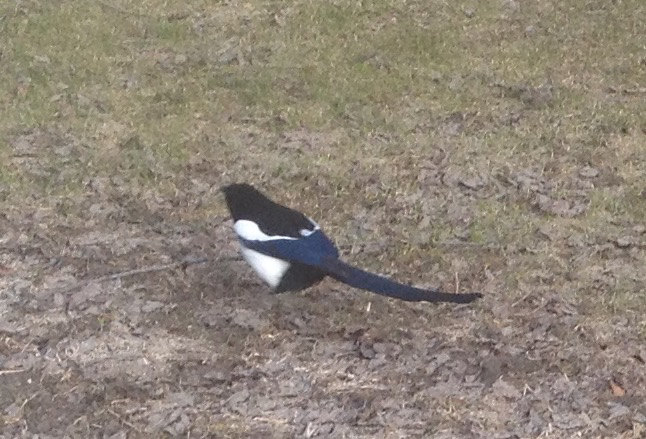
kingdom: Animalia
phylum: Chordata
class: Aves
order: Passeriformes
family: Corvidae
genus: Pica
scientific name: Pica hudsonia
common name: Black-billed magpie
